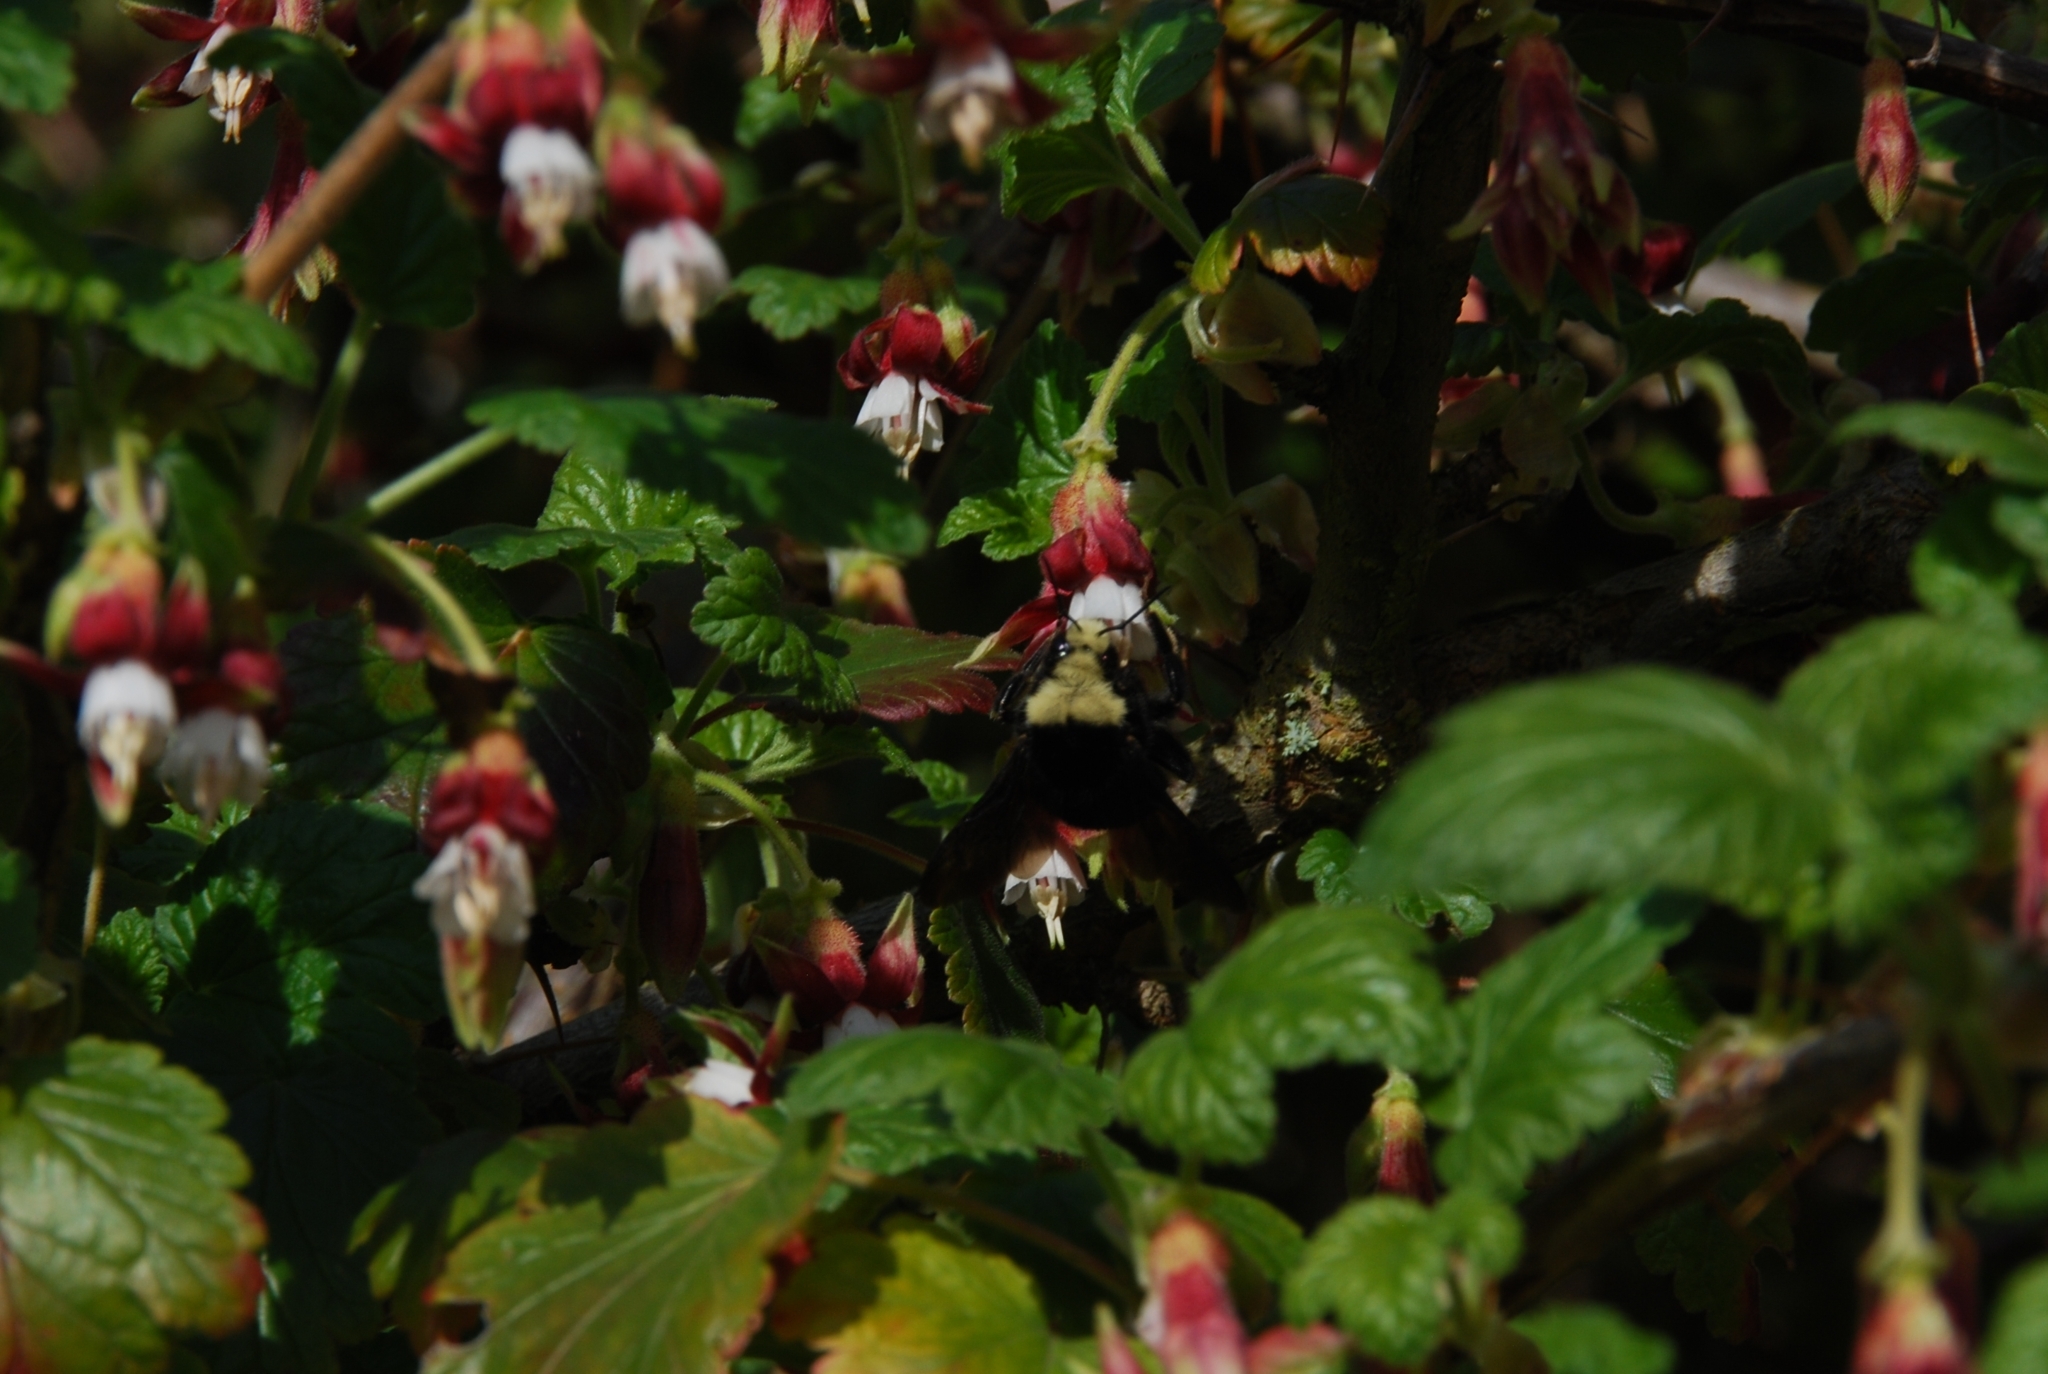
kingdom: Animalia
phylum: Arthropoda
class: Insecta
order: Hymenoptera
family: Apidae
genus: Bombus
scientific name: Bombus vosnesenskii
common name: Vosnesensky bumble bee
